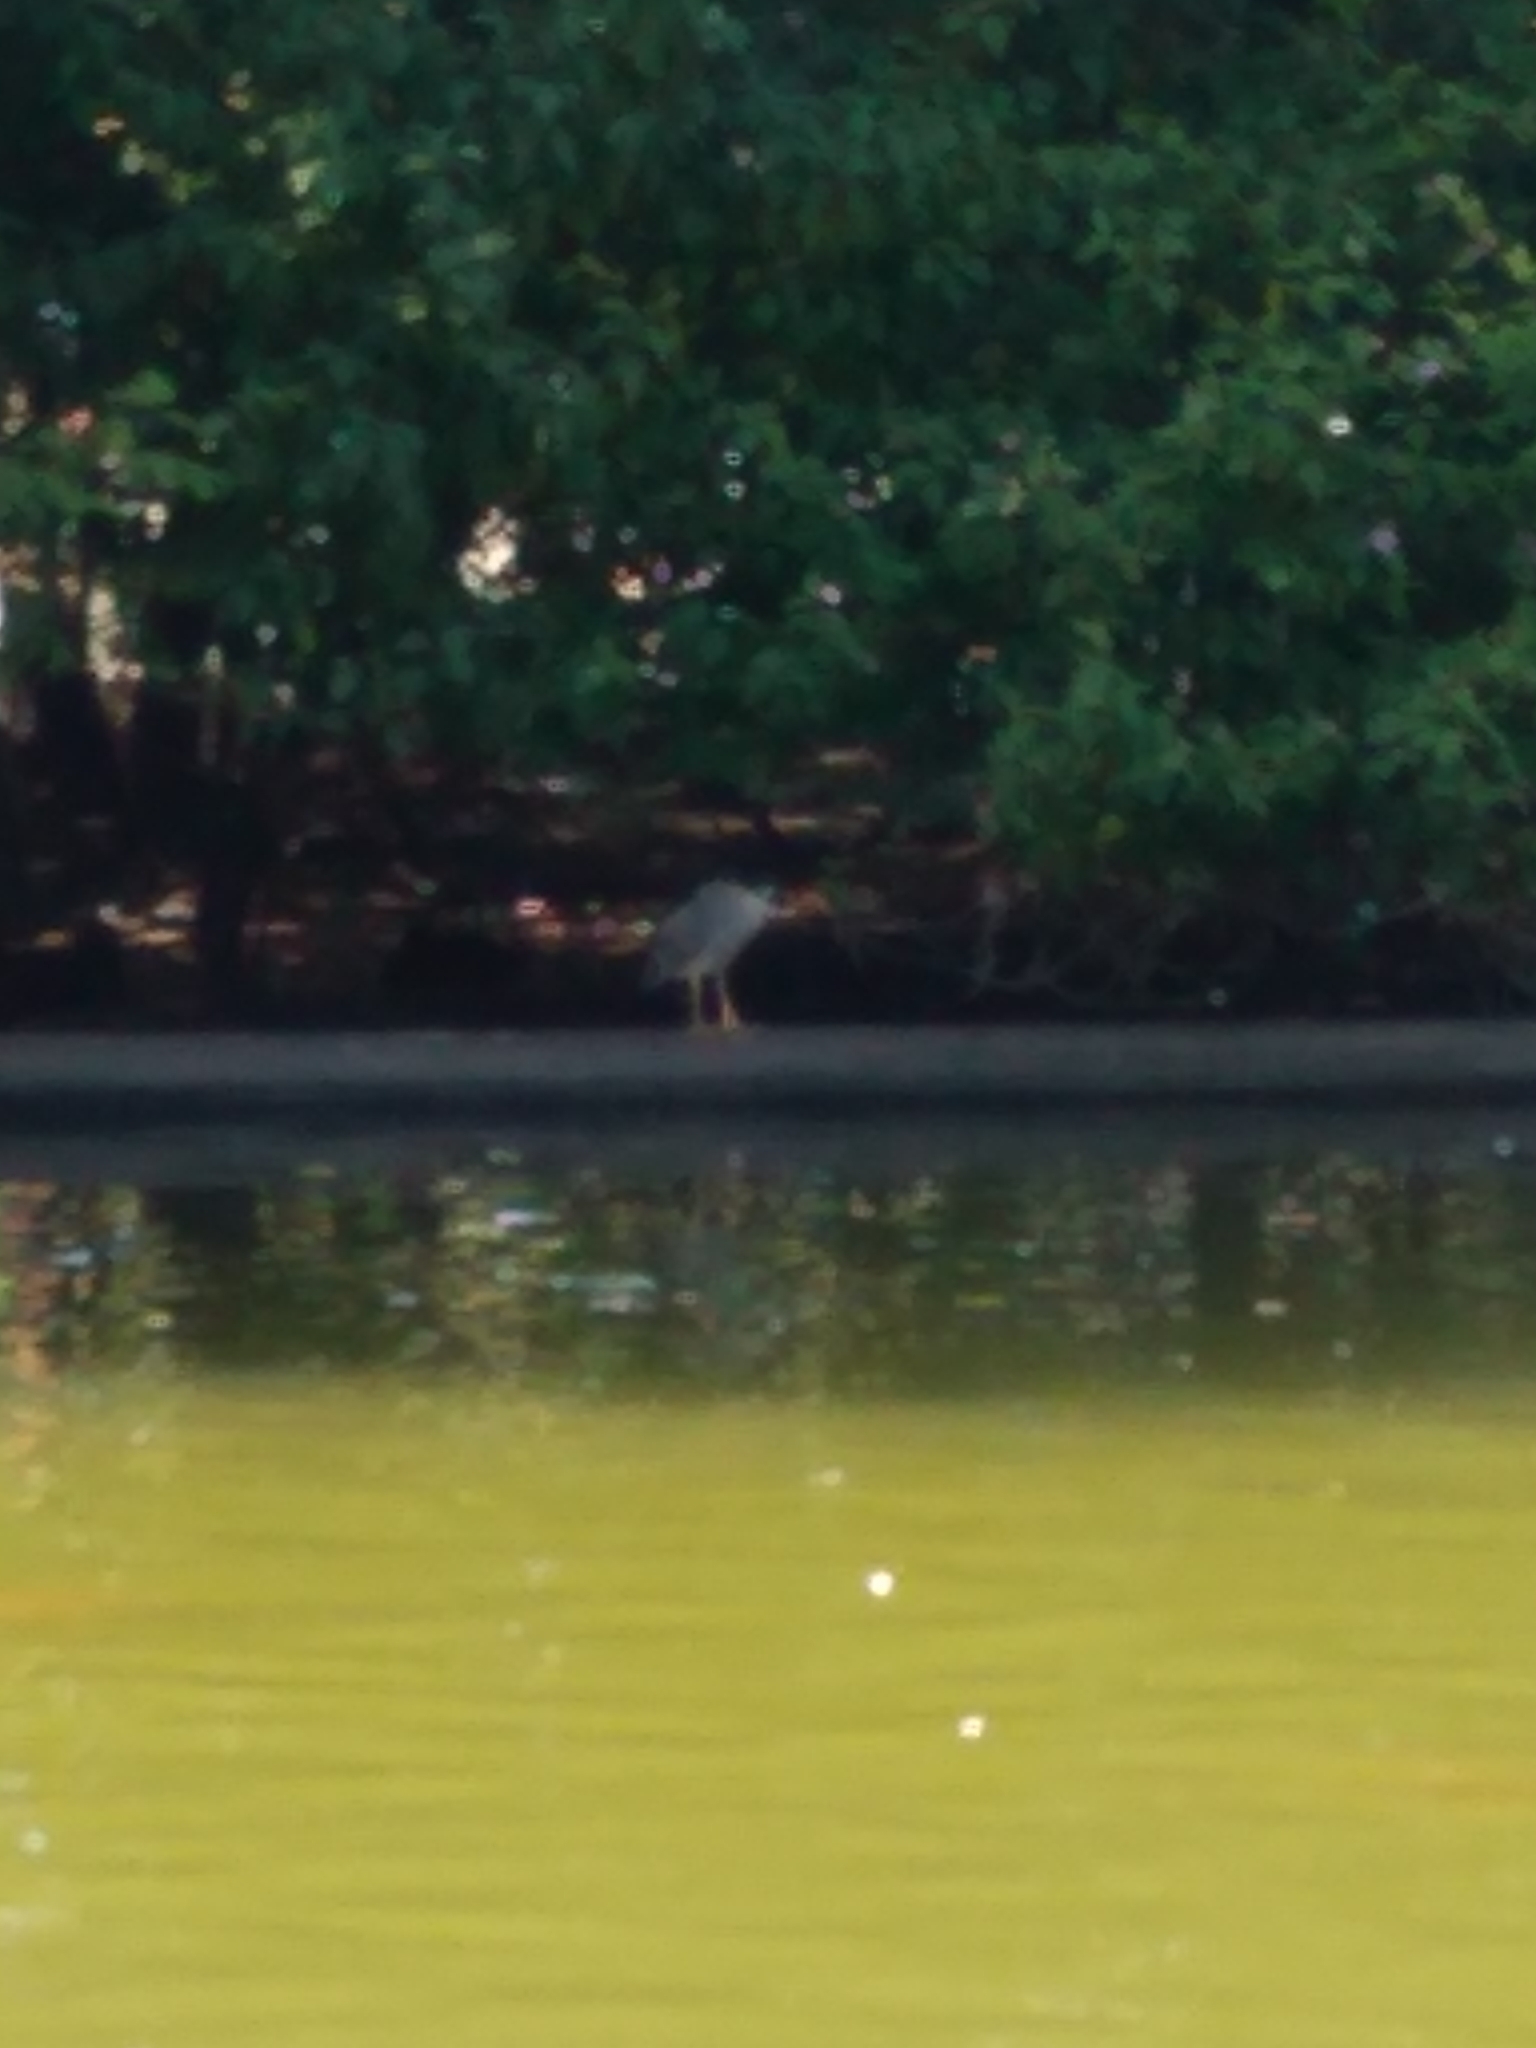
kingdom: Animalia
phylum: Chordata
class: Aves
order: Pelecaniformes
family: Ardeidae
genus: Nycticorax
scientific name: Nycticorax nycticorax
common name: Black-crowned night heron
